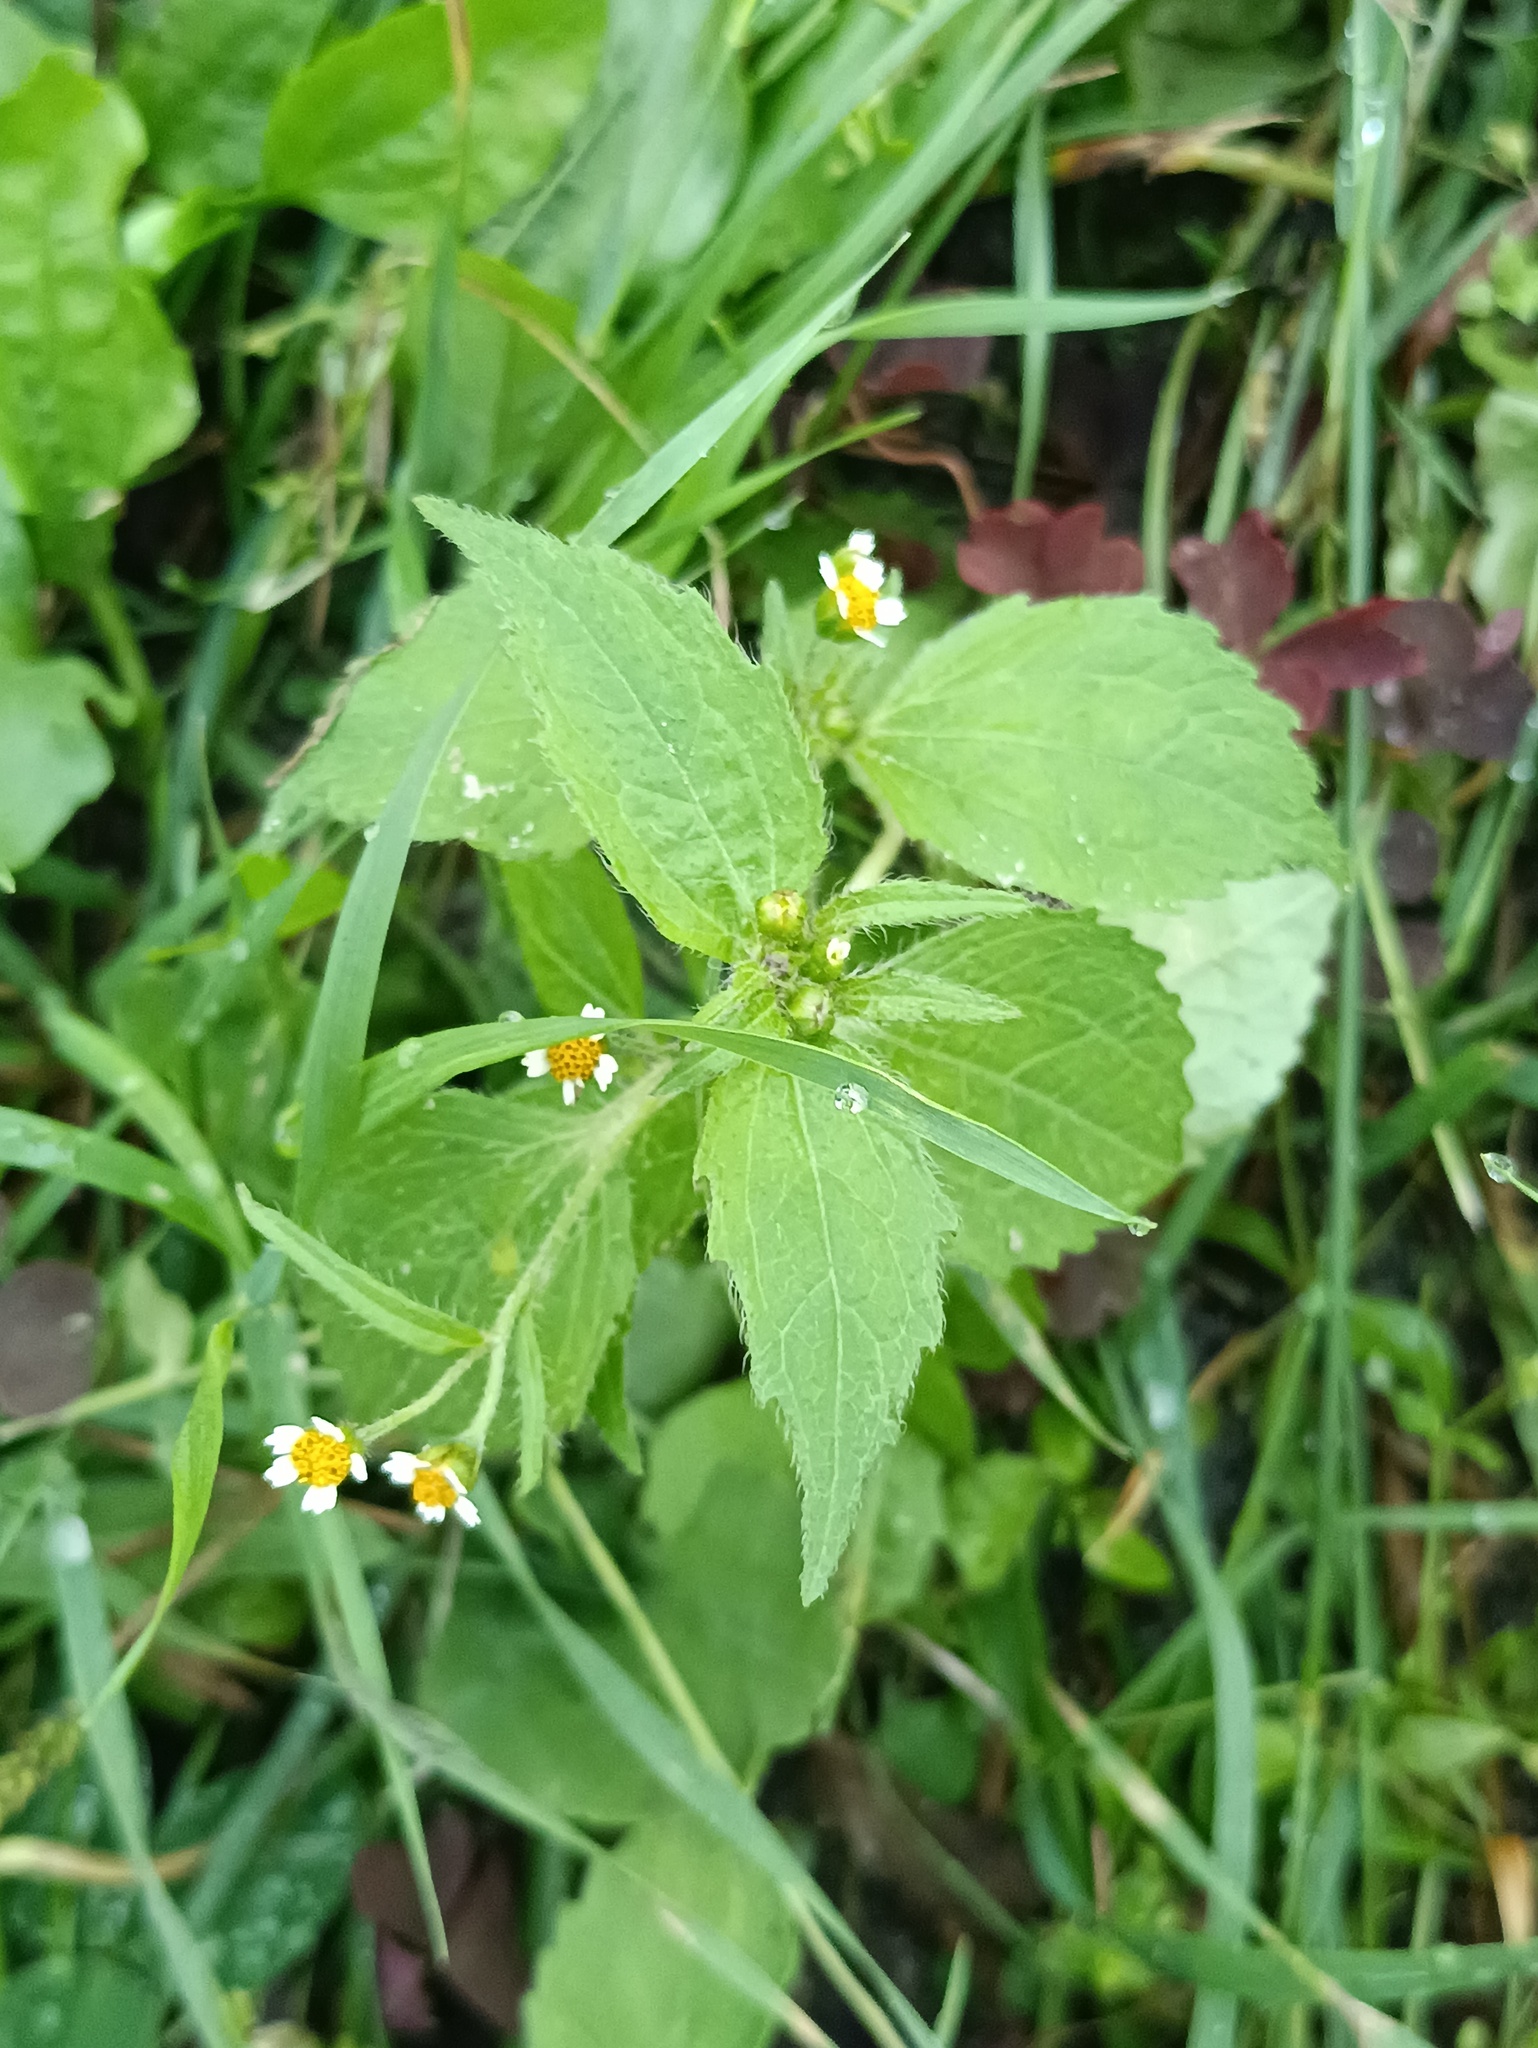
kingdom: Plantae
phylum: Tracheophyta
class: Magnoliopsida
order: Asterales
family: Asteraceae
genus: Galinsoga
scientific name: Galinsoga quadriradiata
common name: Shaggy soldier
